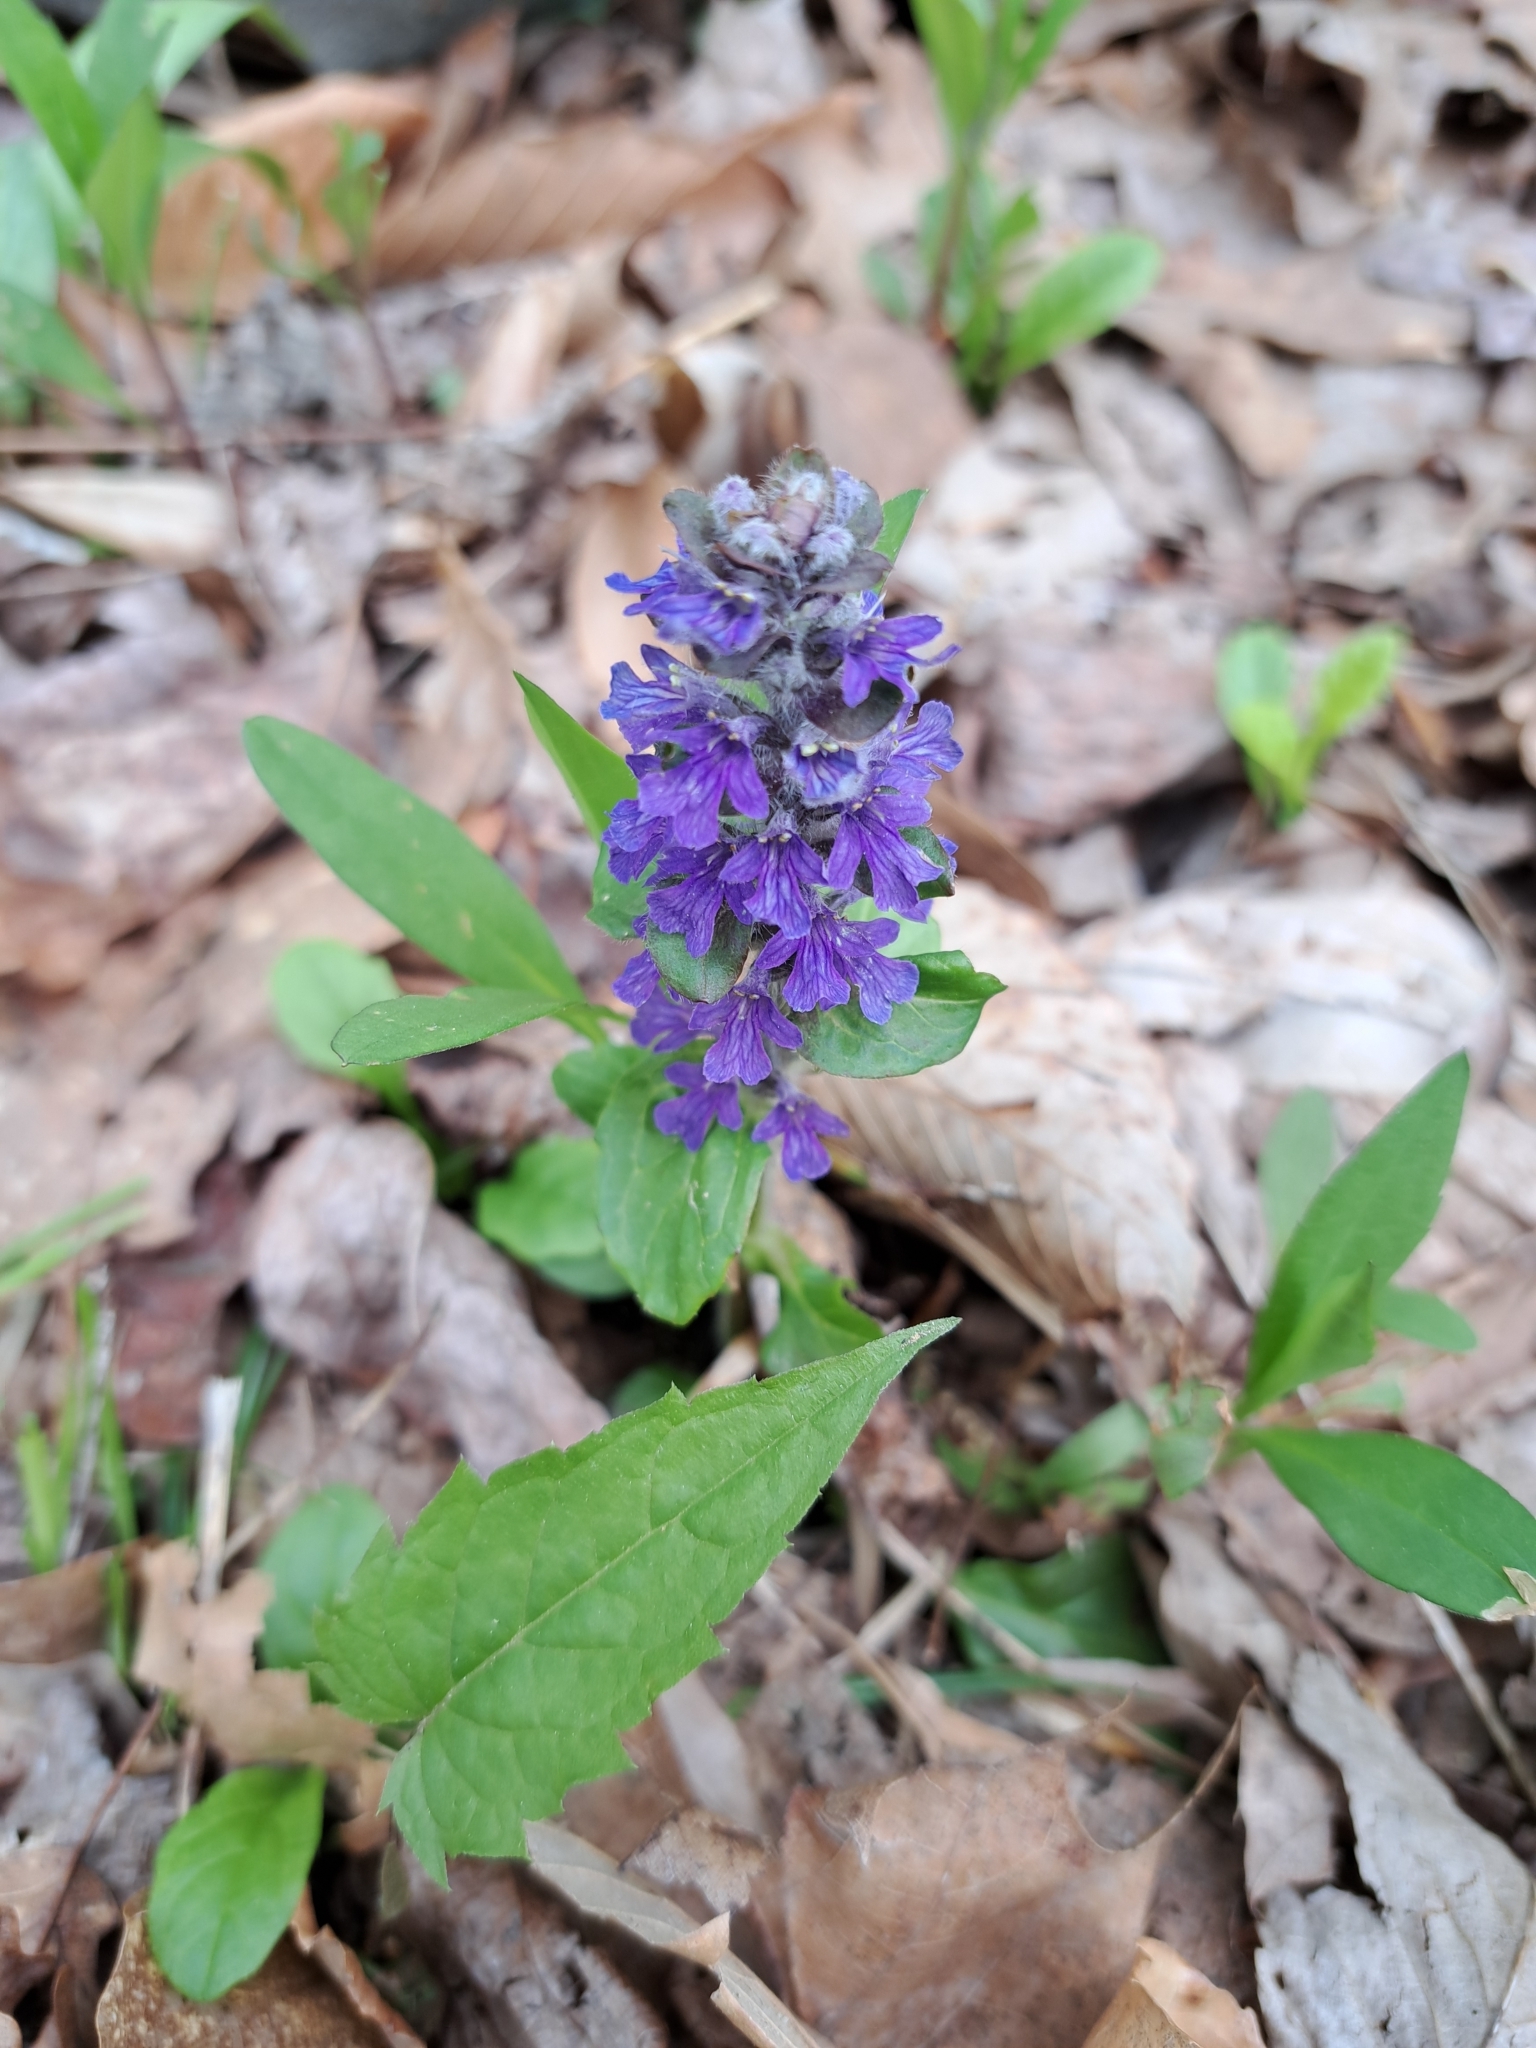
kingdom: Plantae
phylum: Tracheophyta
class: Magnoliopsida
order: Lamiales
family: Lamiaceae
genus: Ajuga
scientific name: Ajuga reptans
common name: Bugle
